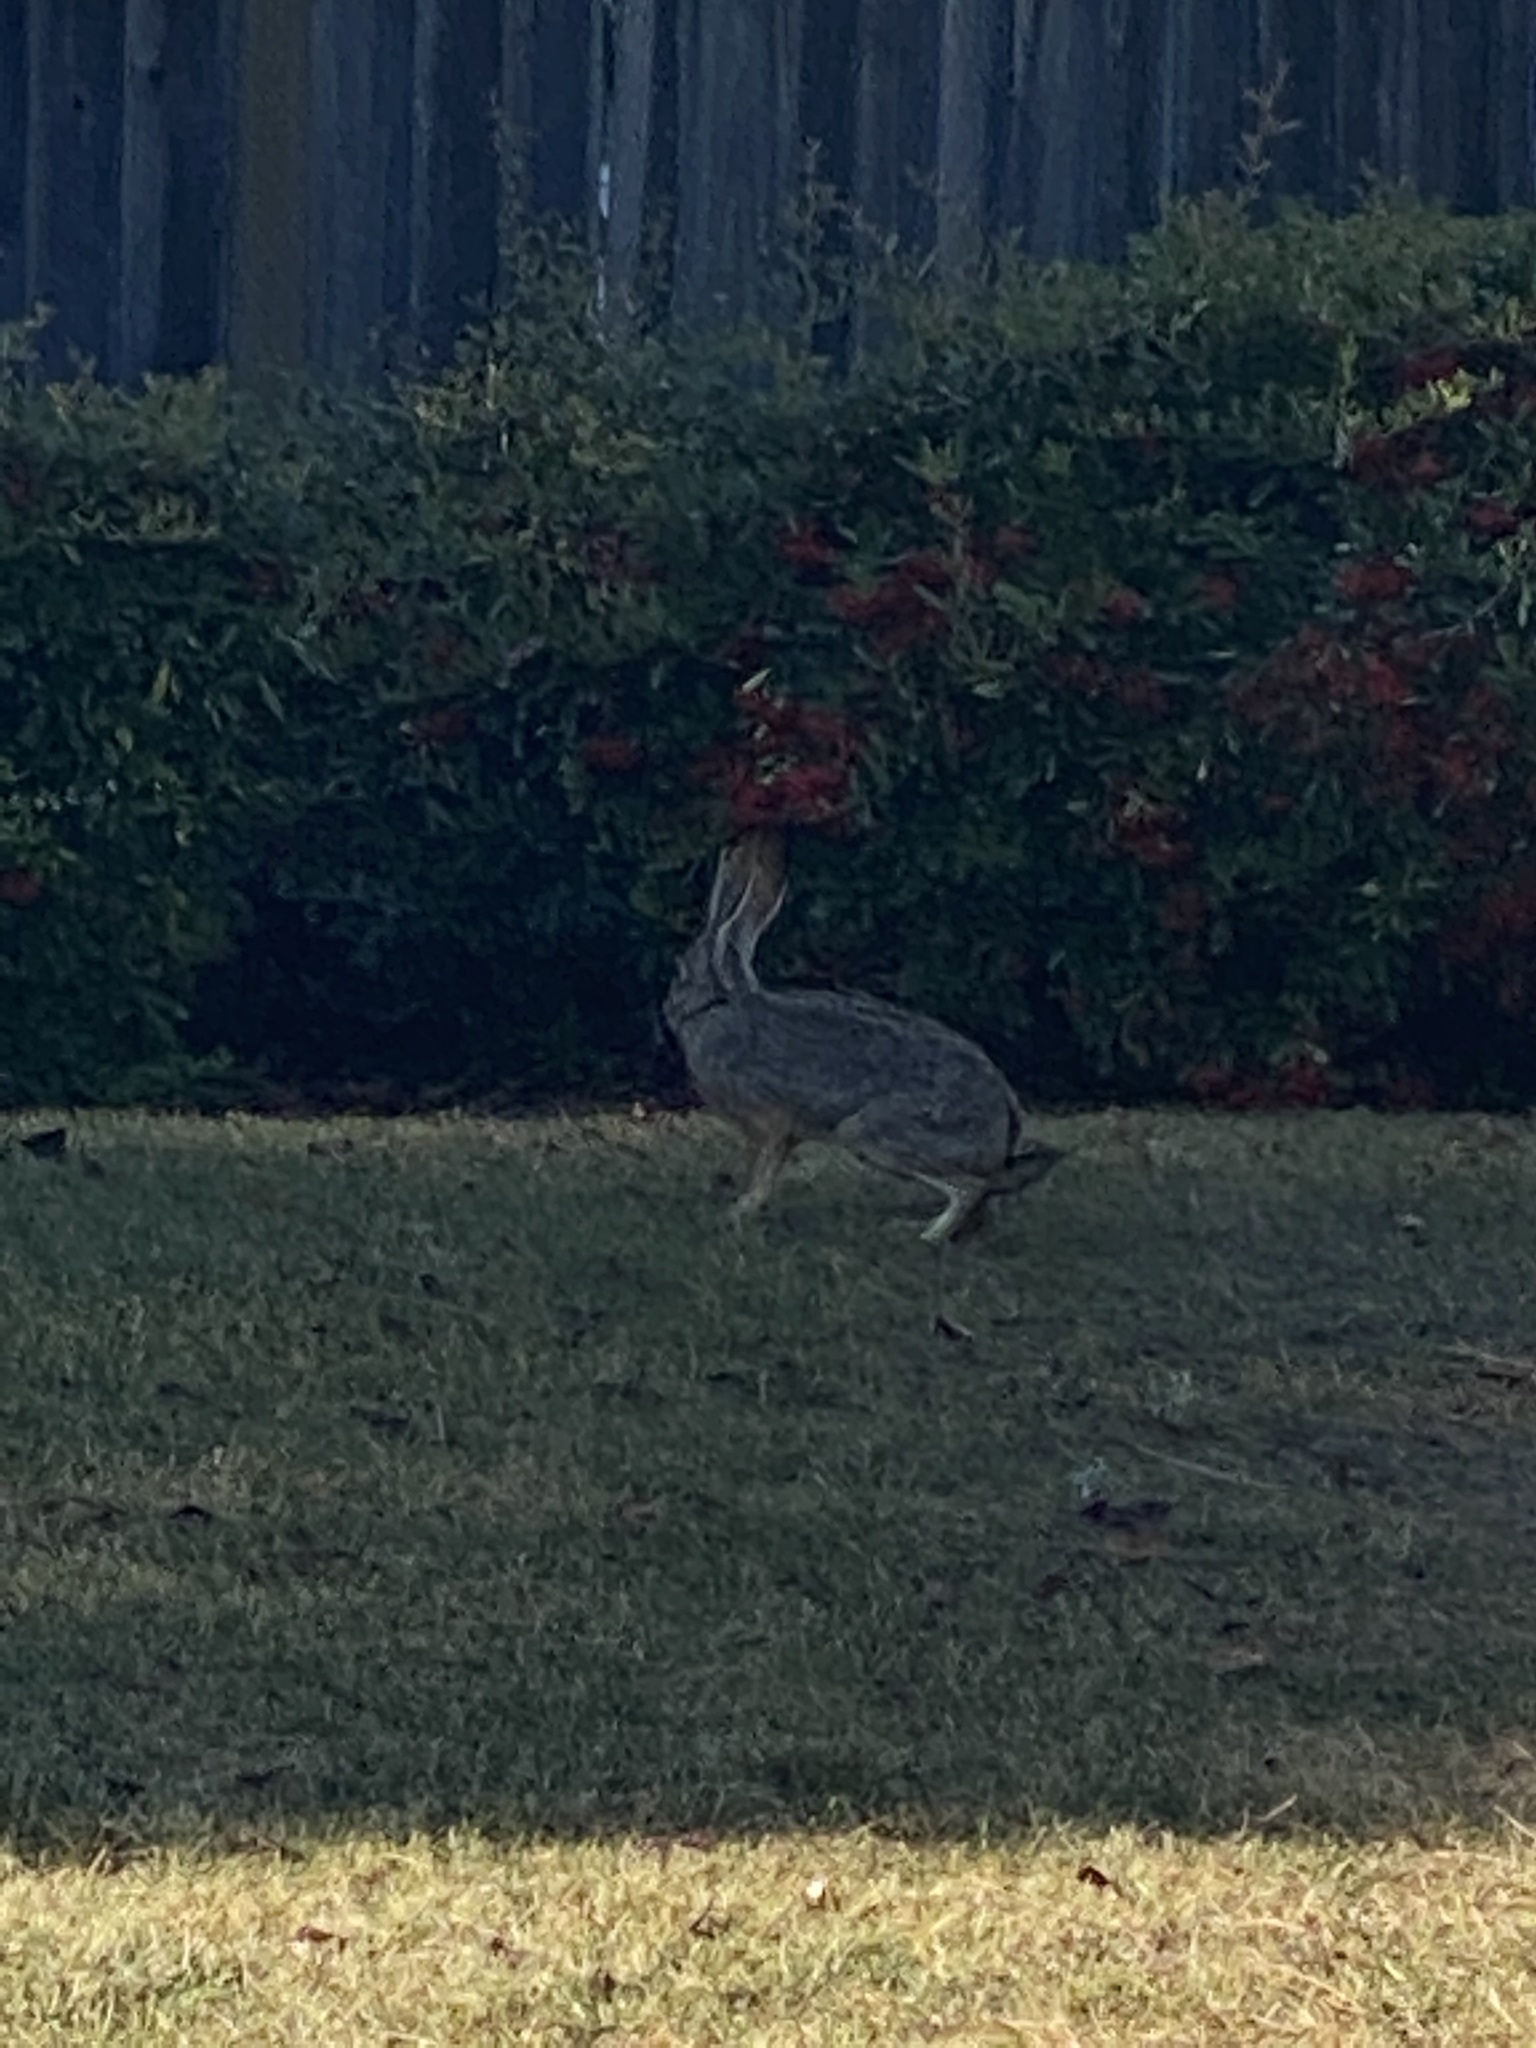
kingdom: Animalia
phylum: Chordata
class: Mammalia
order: Lagomorpha
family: Leporidae
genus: Lepus
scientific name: Lepus californicus
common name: Black-tailed jackrabbit
